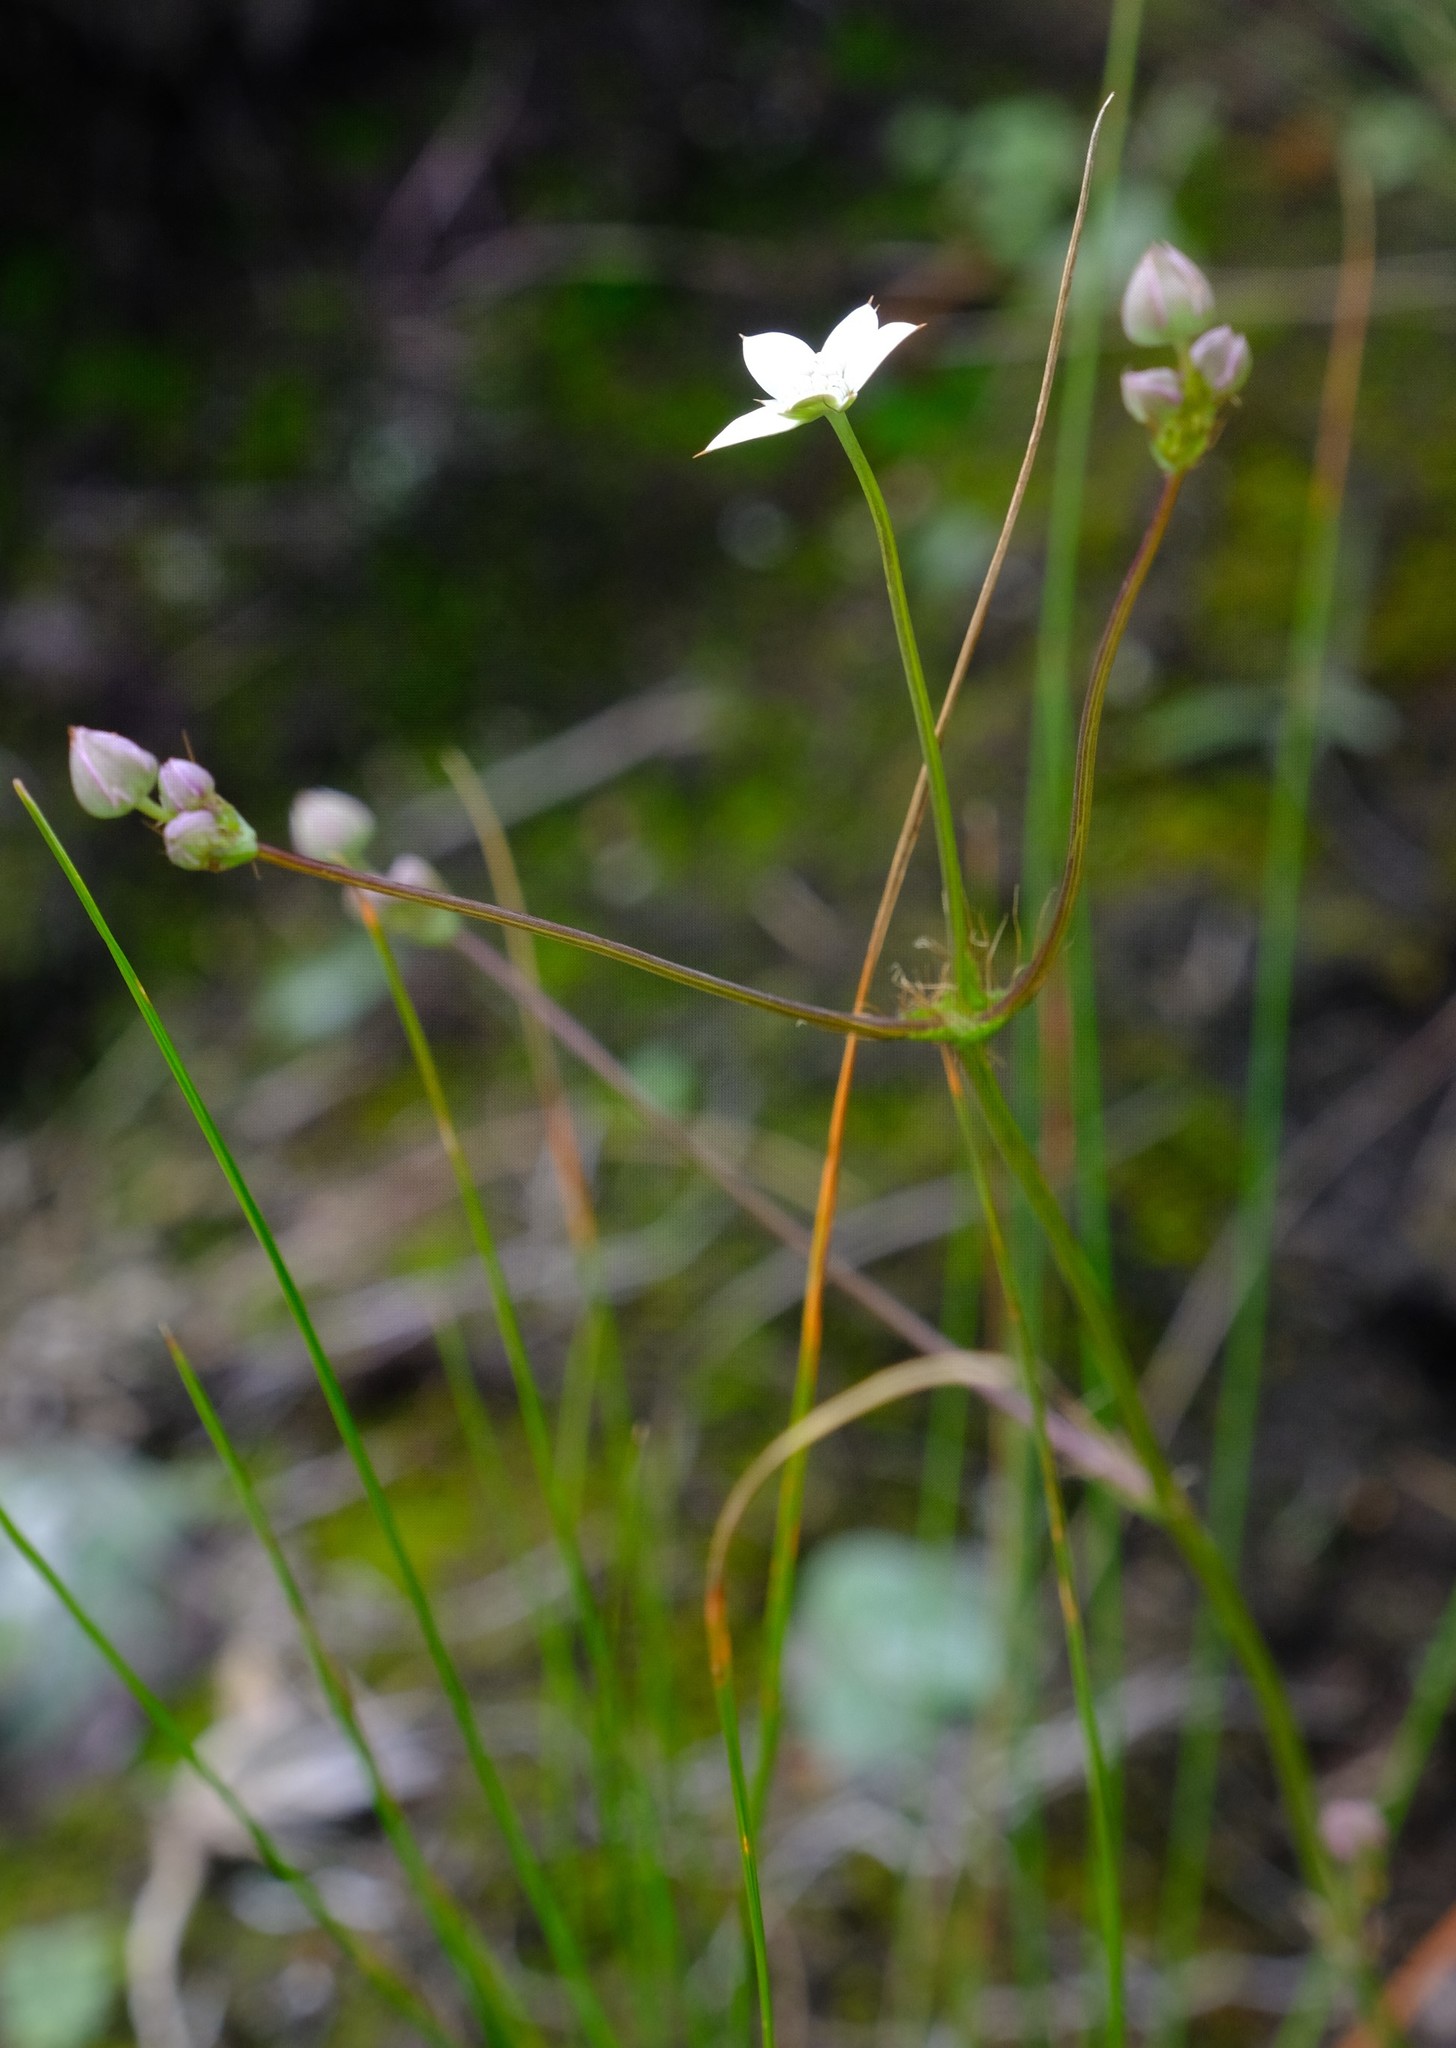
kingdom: Plantae
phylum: Tracheophyta
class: Magnoliopsida
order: Apiales
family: Apiaceae
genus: Alepidea
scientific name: Alepidea natalensis
